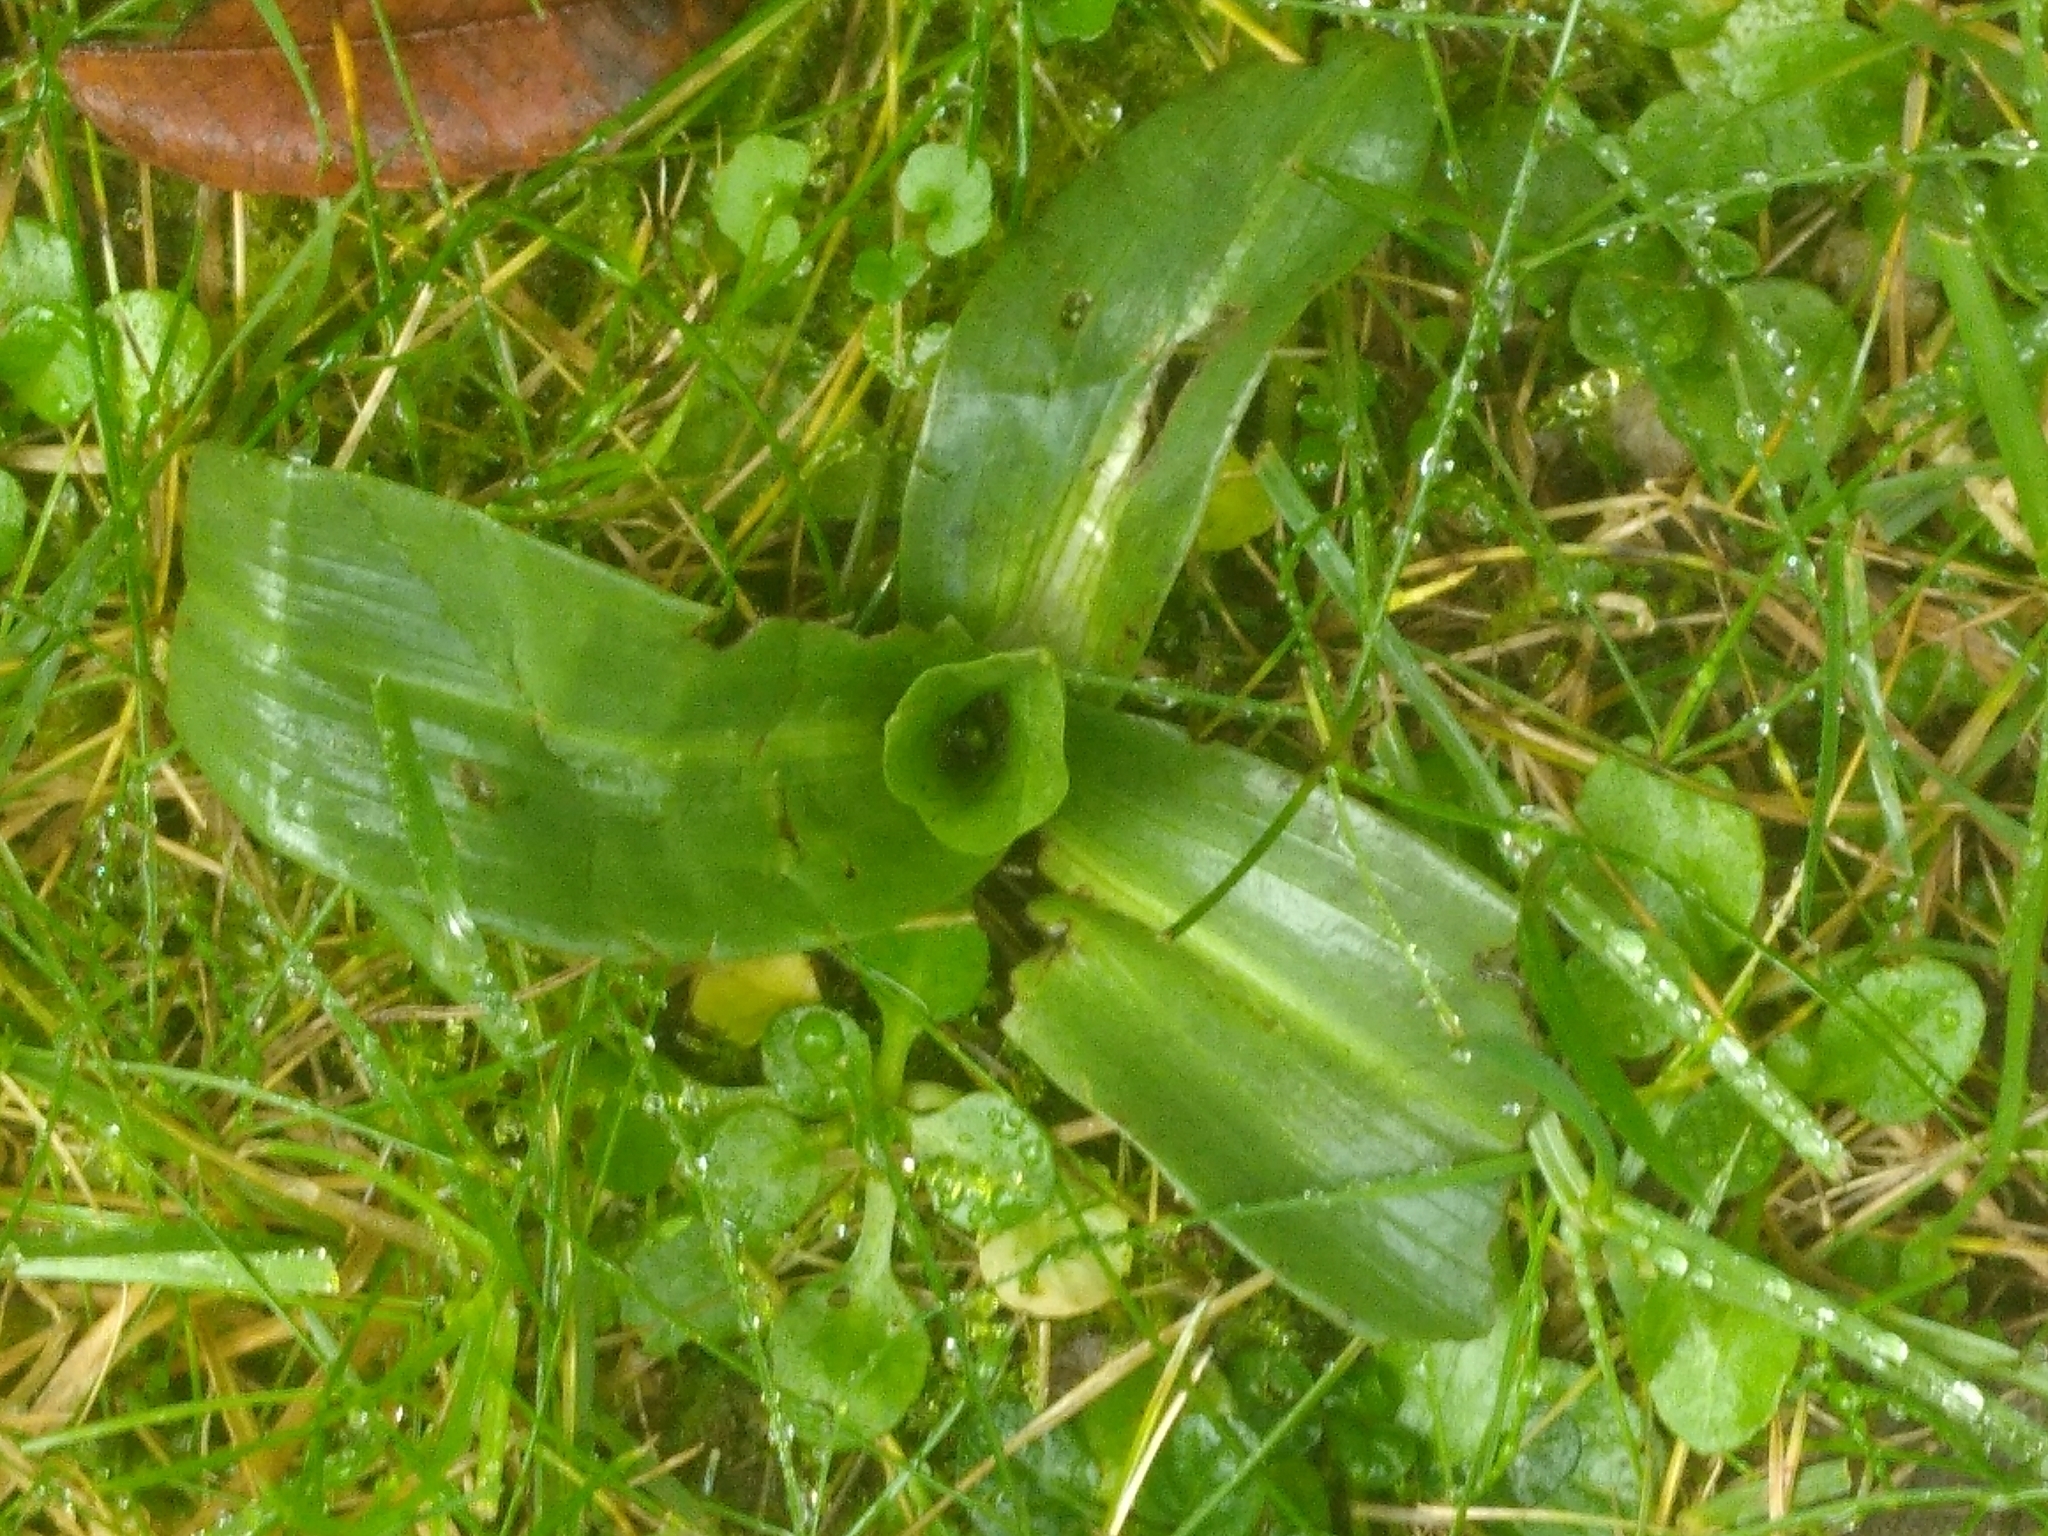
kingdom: Plantae
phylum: Tracheophyta
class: Liliopsida
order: Asparagales
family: Orchidaceae
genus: Ophrys
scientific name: Ophrys apifera
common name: Bee orchid
